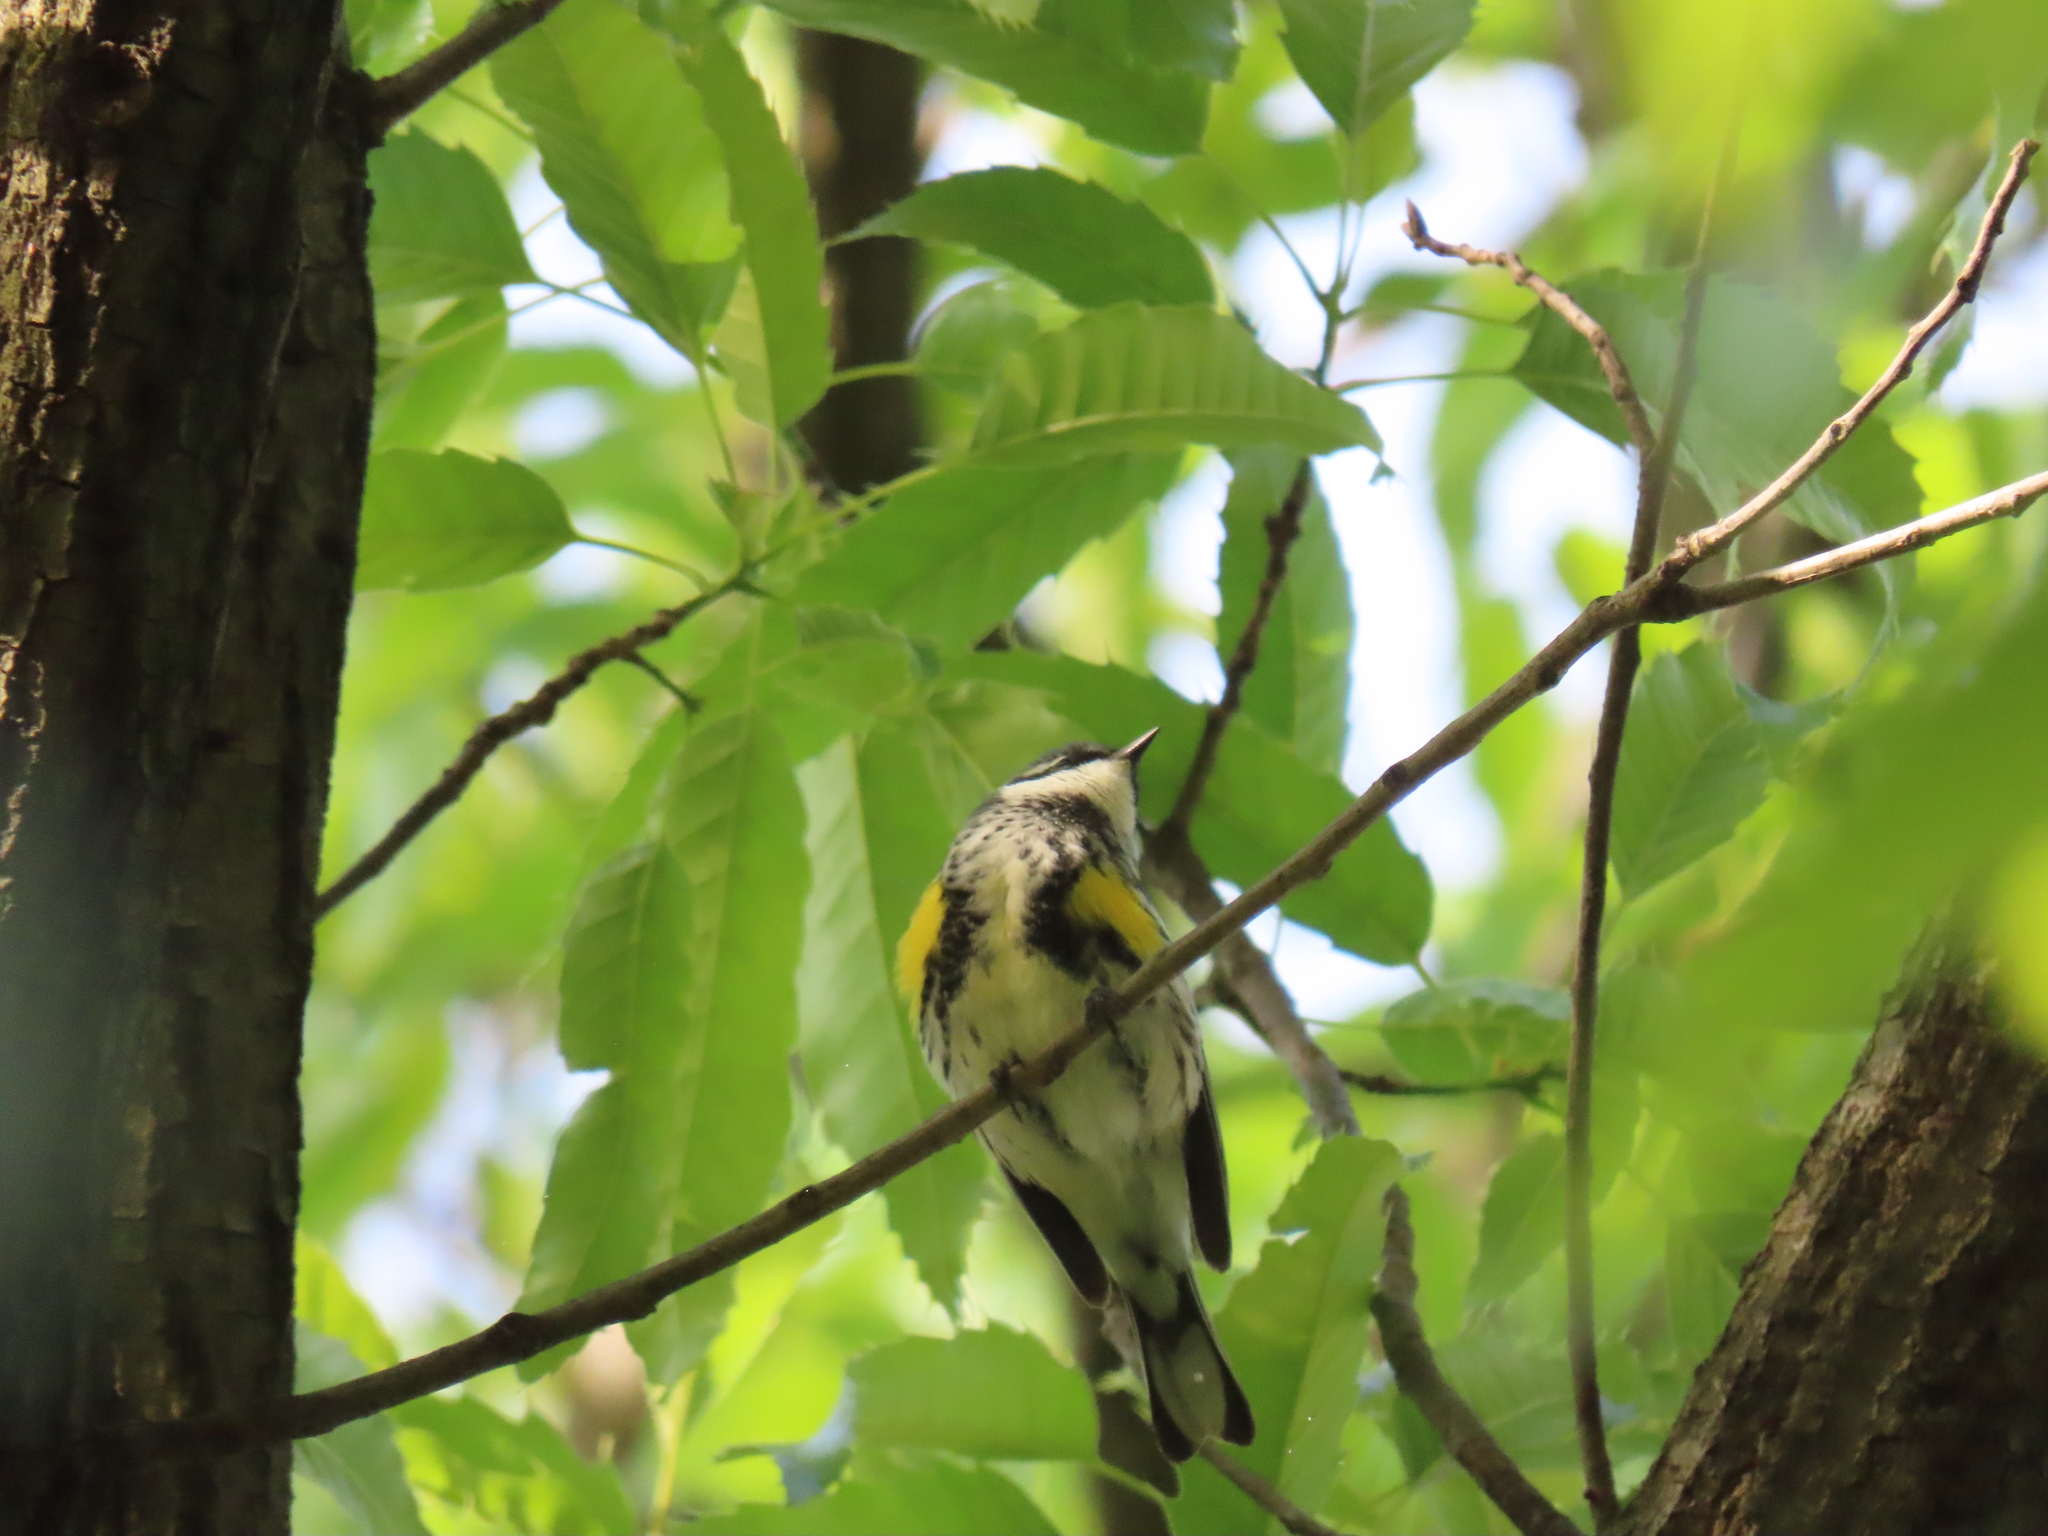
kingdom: Animalia
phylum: Chordata
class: Aves
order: Passeriformes
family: Parulidae
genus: Setophaga
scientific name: Setophaga coronata
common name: Myrtle warbler
